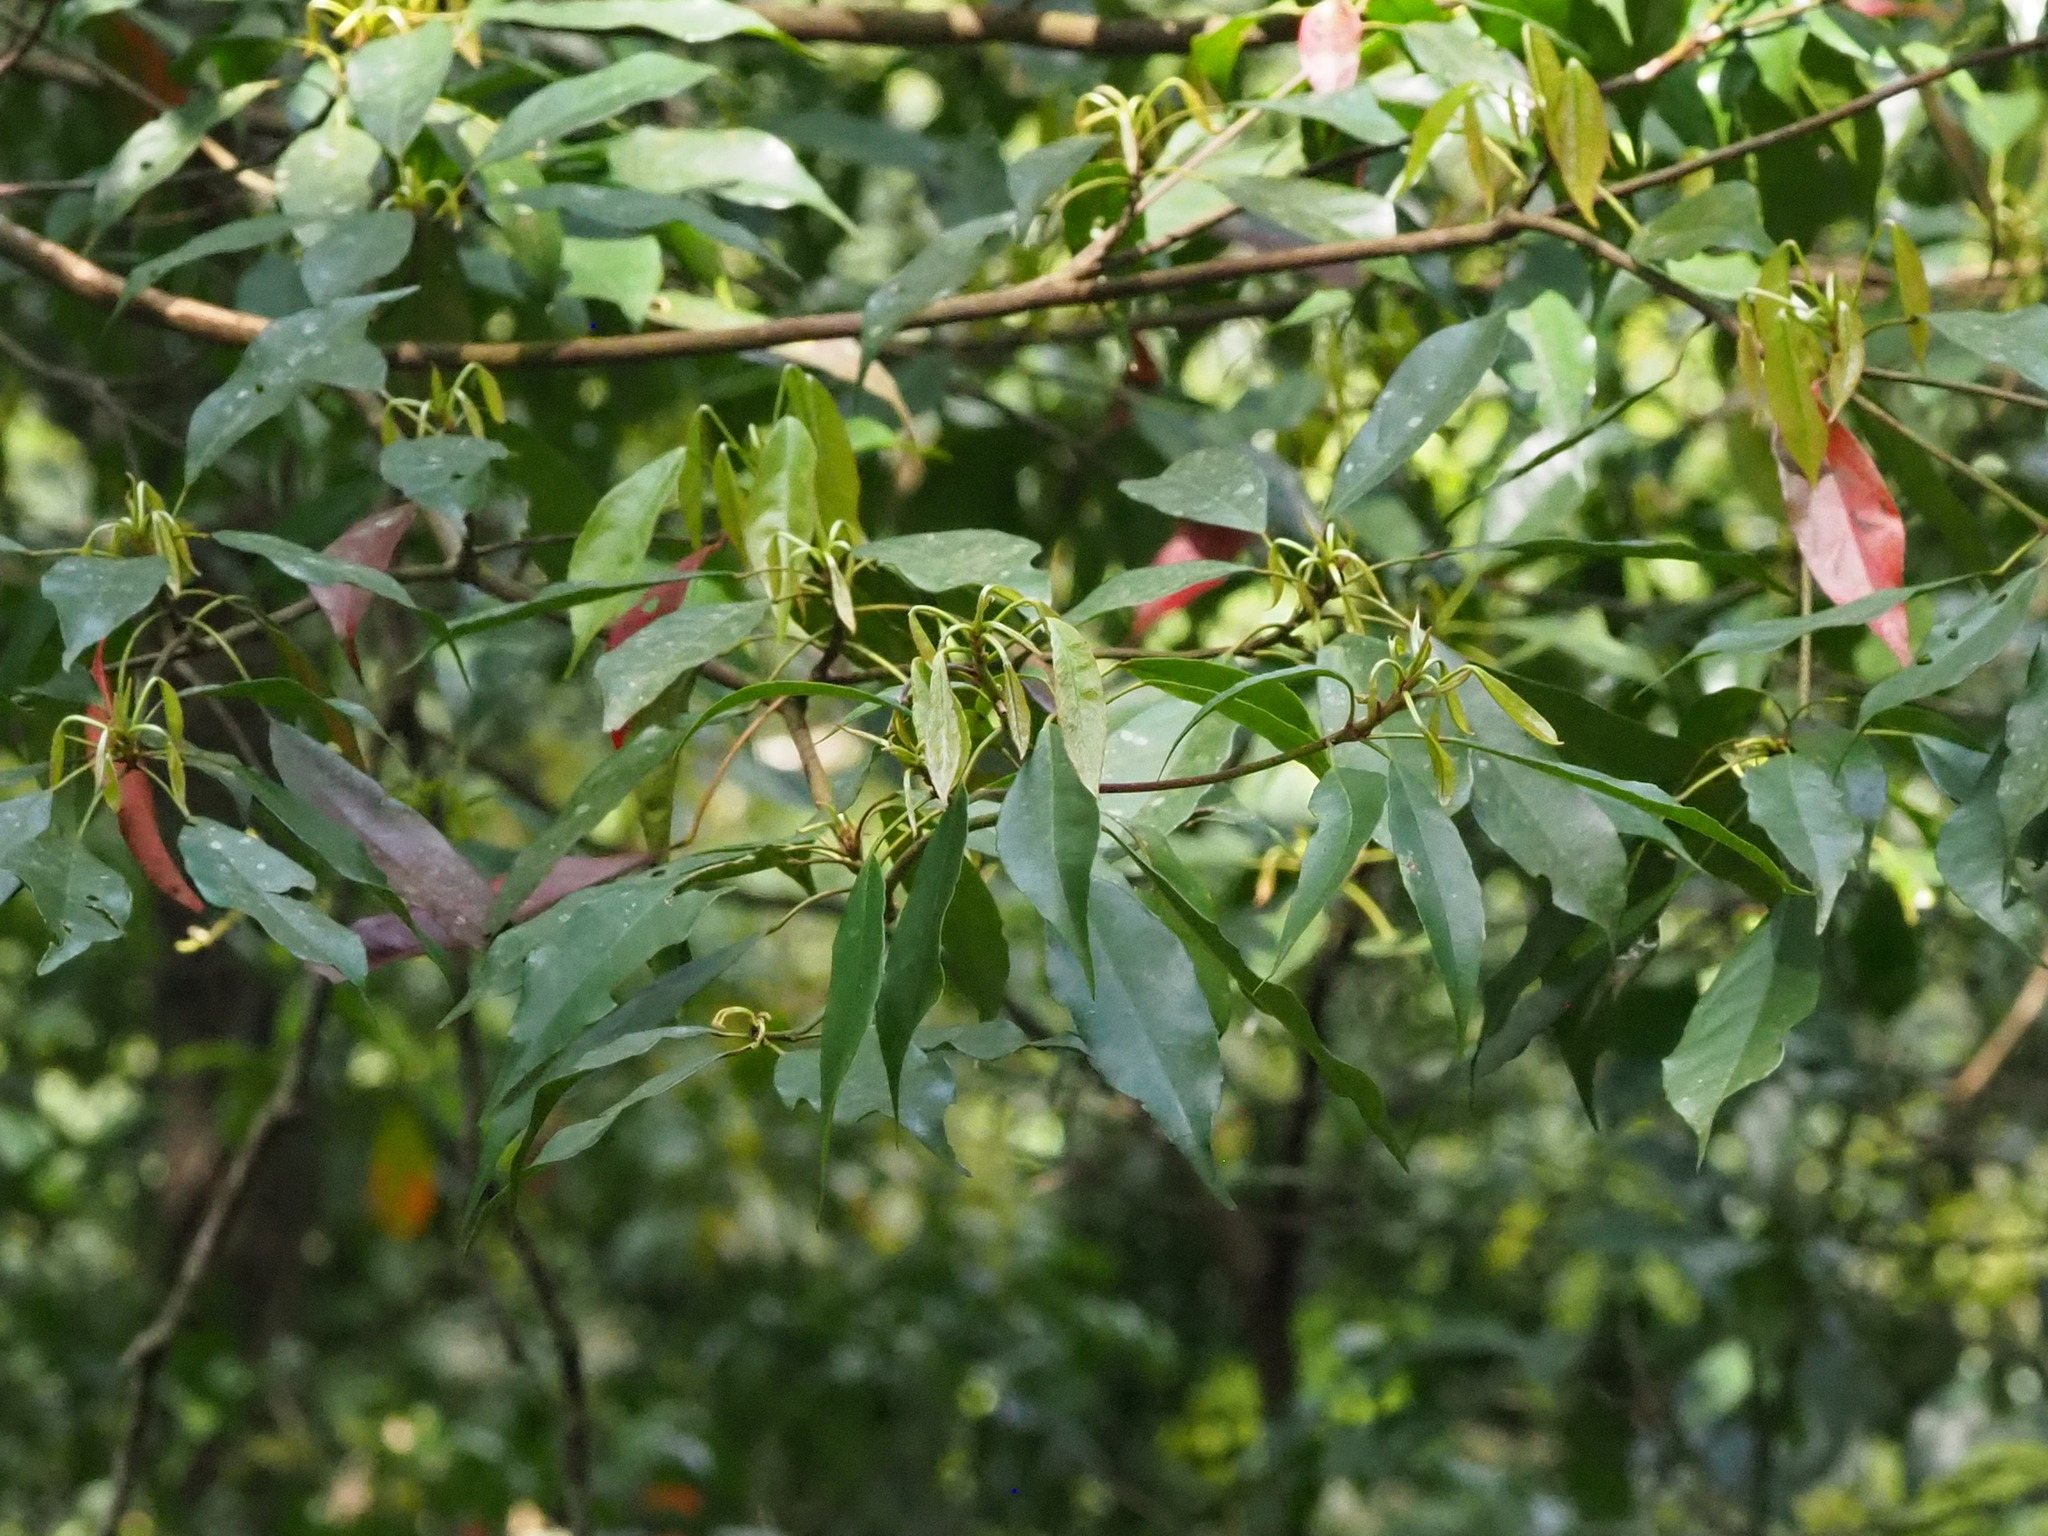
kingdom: Plantae
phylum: Tracheophyta
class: Magnoliopsida
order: Oxalidales
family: Elaeocarpaceae
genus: Elaeocarpus
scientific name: Elaeocarpus japonicus
